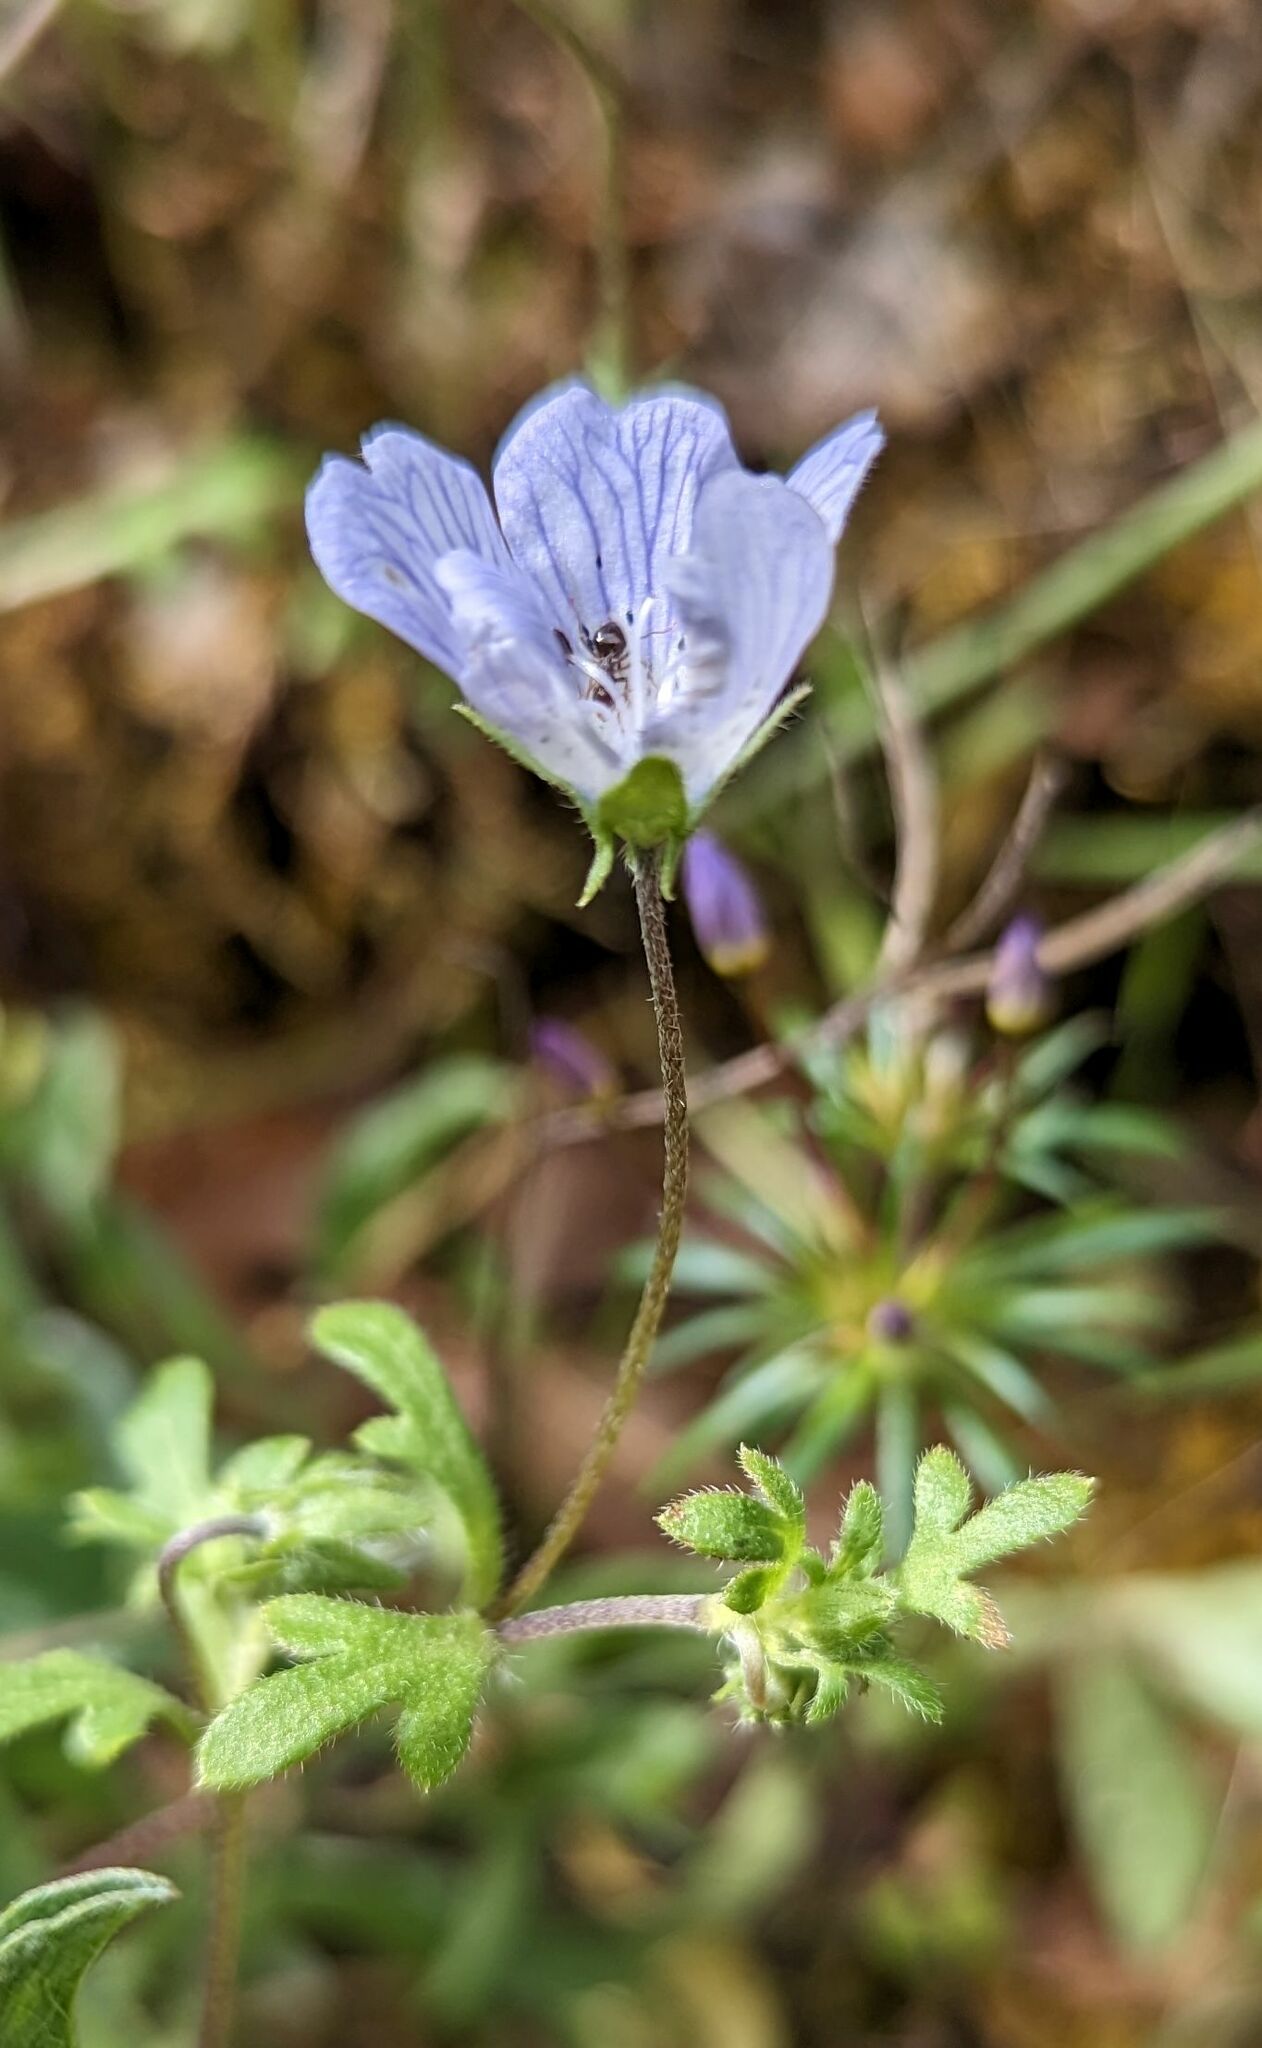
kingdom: Plantae
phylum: Tracheophyta
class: Magnoliopsida
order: Boraginales
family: Hydrophyllaceae
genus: Nemophila
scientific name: Nemophila menziesii
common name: Baby's-blue-eyes
